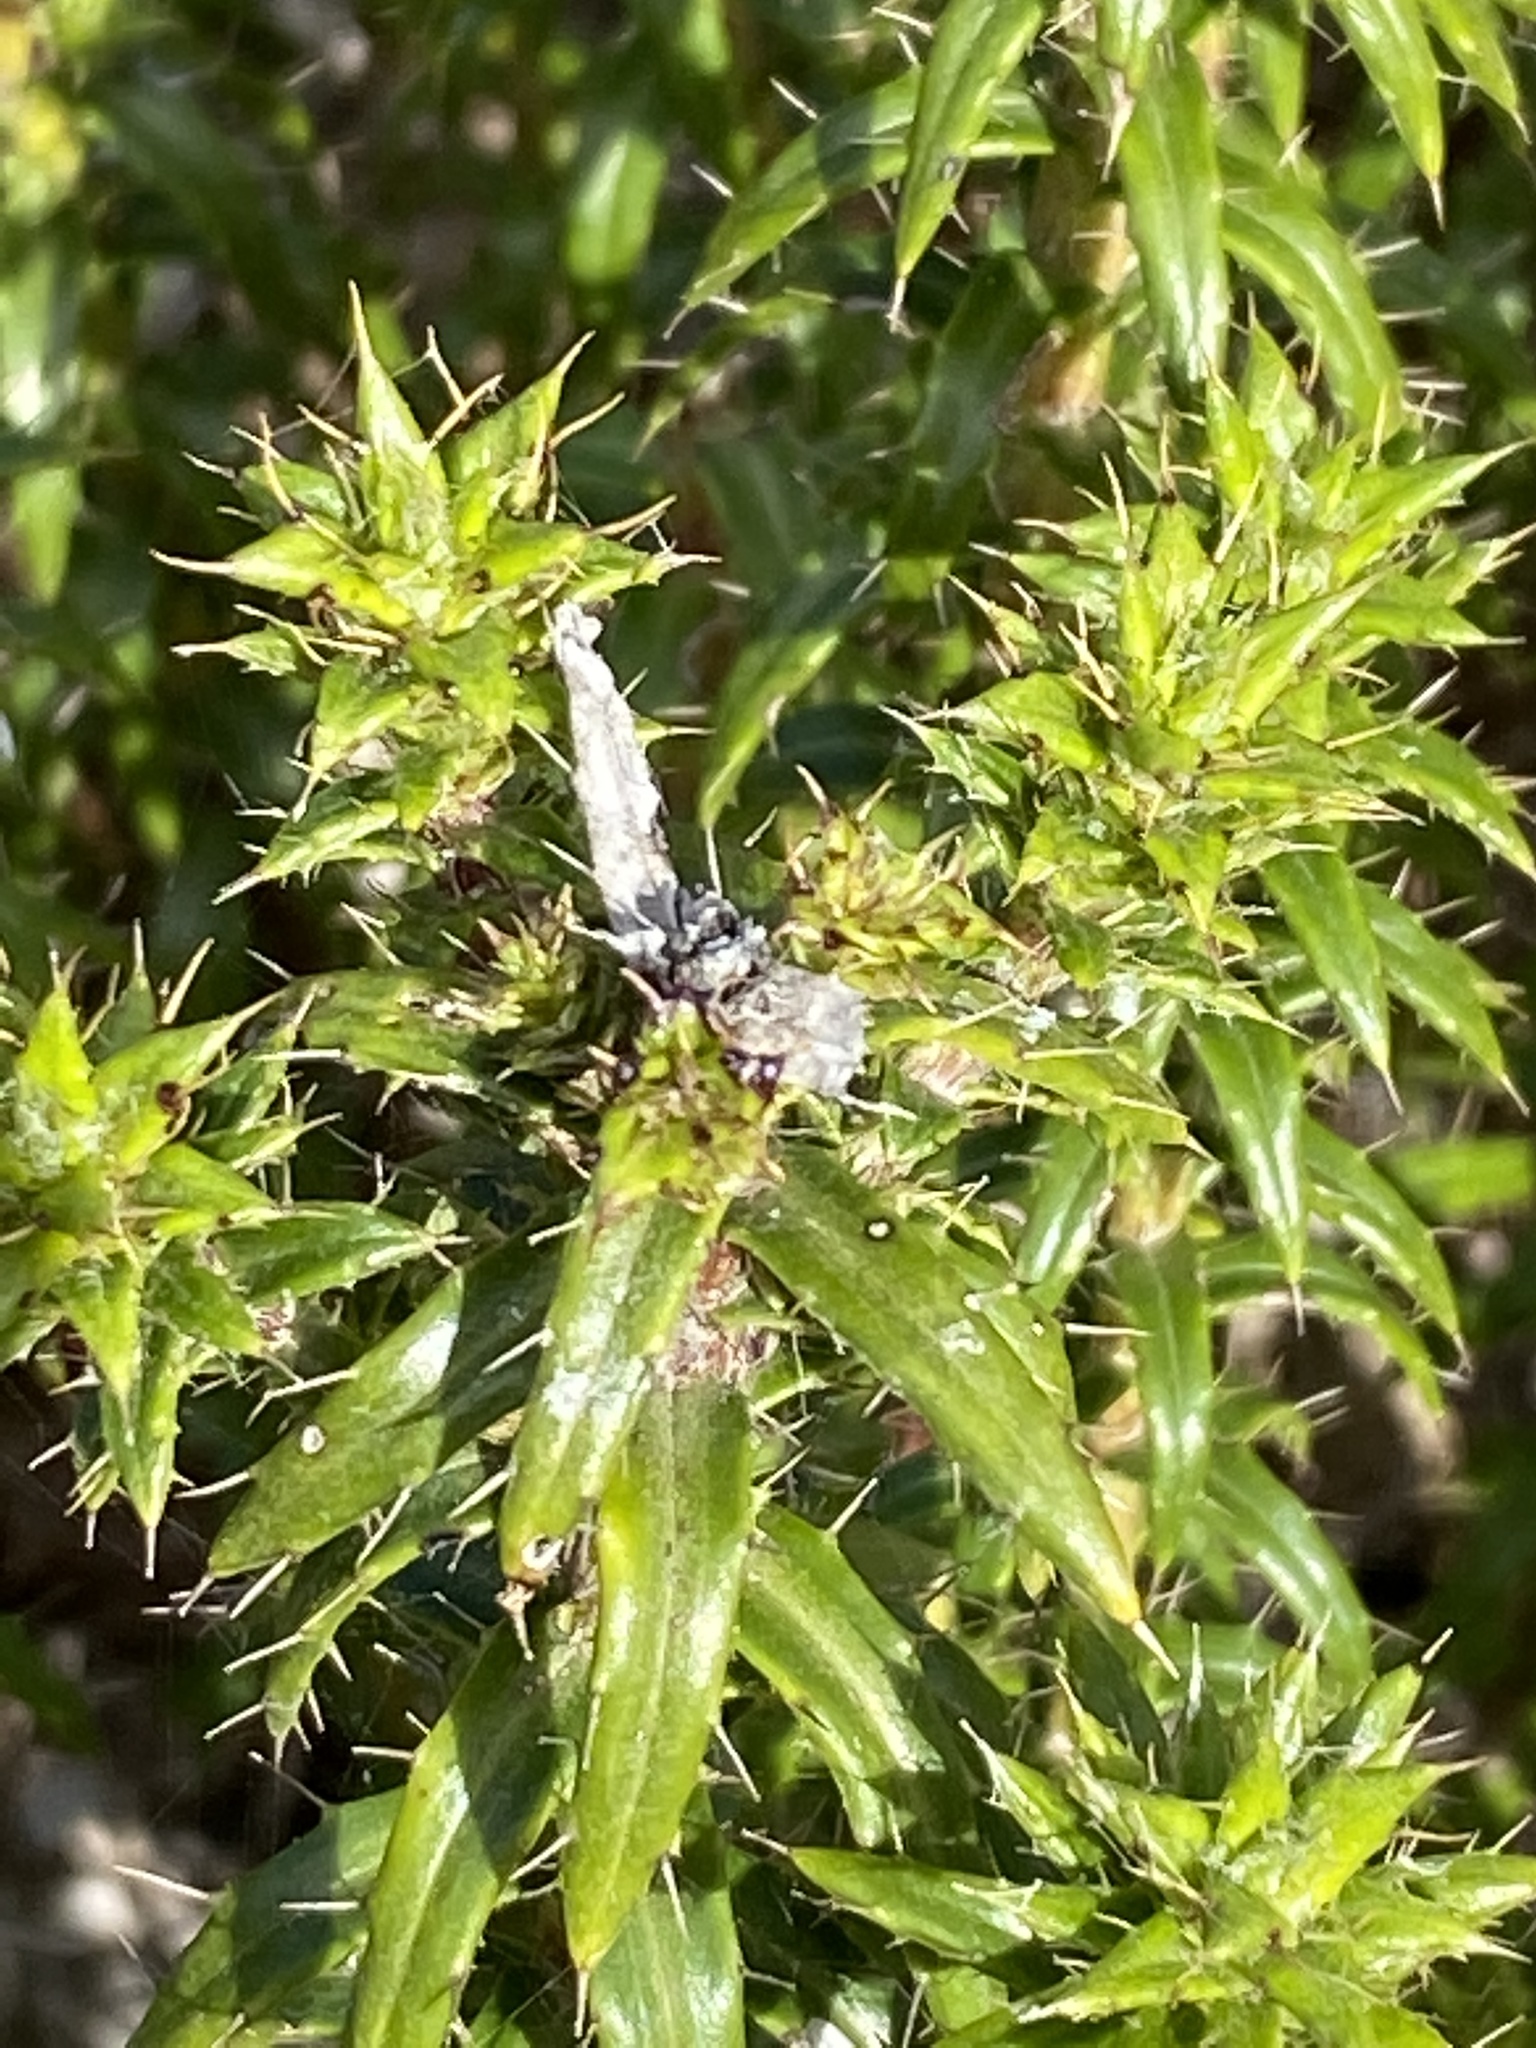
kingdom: Plantae
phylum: Tracheophyta
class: Magnoliopsida
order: Asterales
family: Asteraceae
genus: Cullumia
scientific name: Cullumia carlinoides
